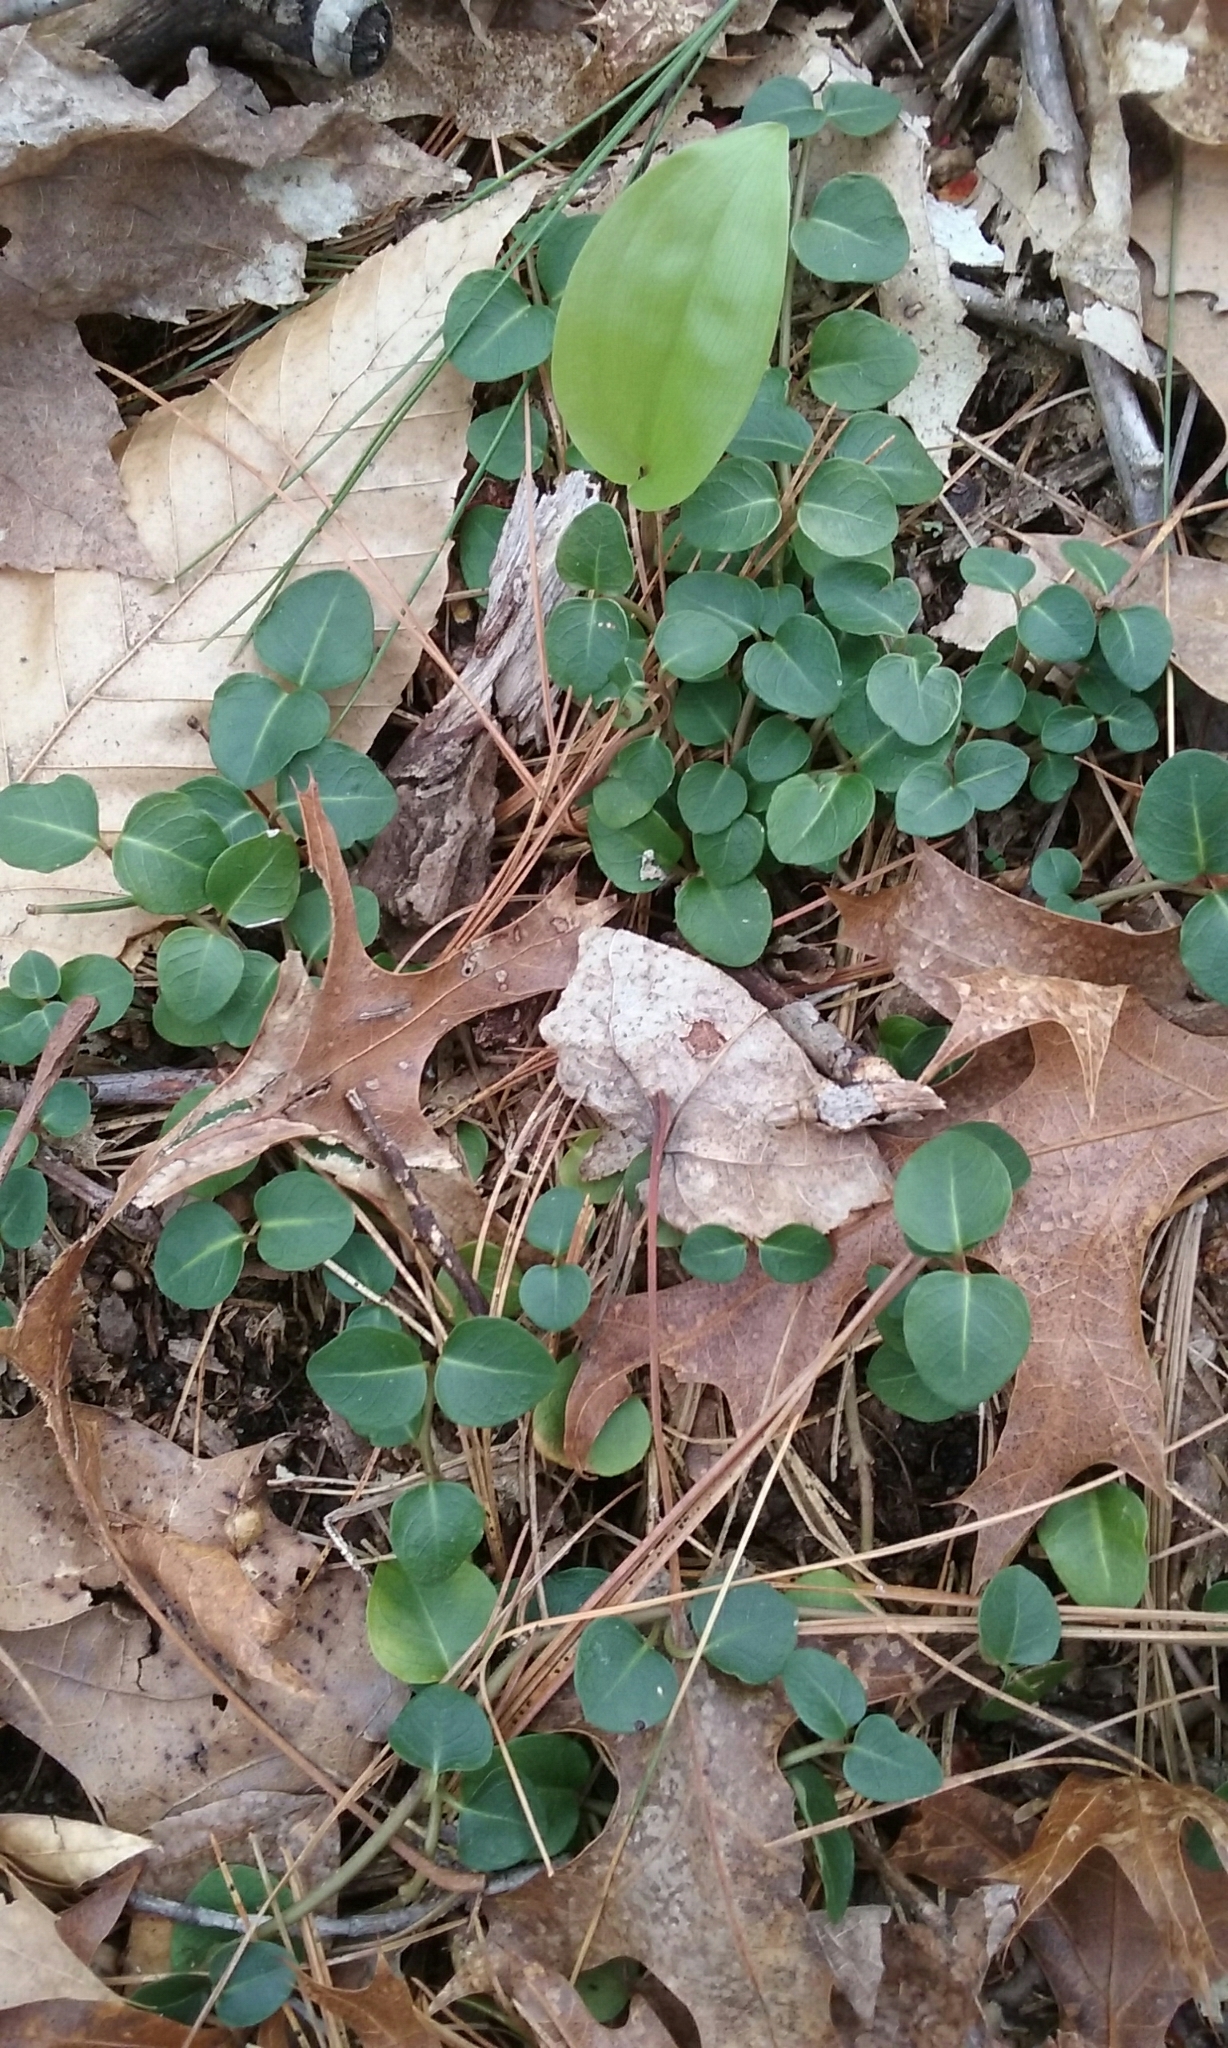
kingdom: Plantae
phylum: Tracheophyta
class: Magnoliopsida
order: Gentianales
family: Rubiaceae
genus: Mitchella
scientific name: Mitchella repens
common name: Partridge-berry
